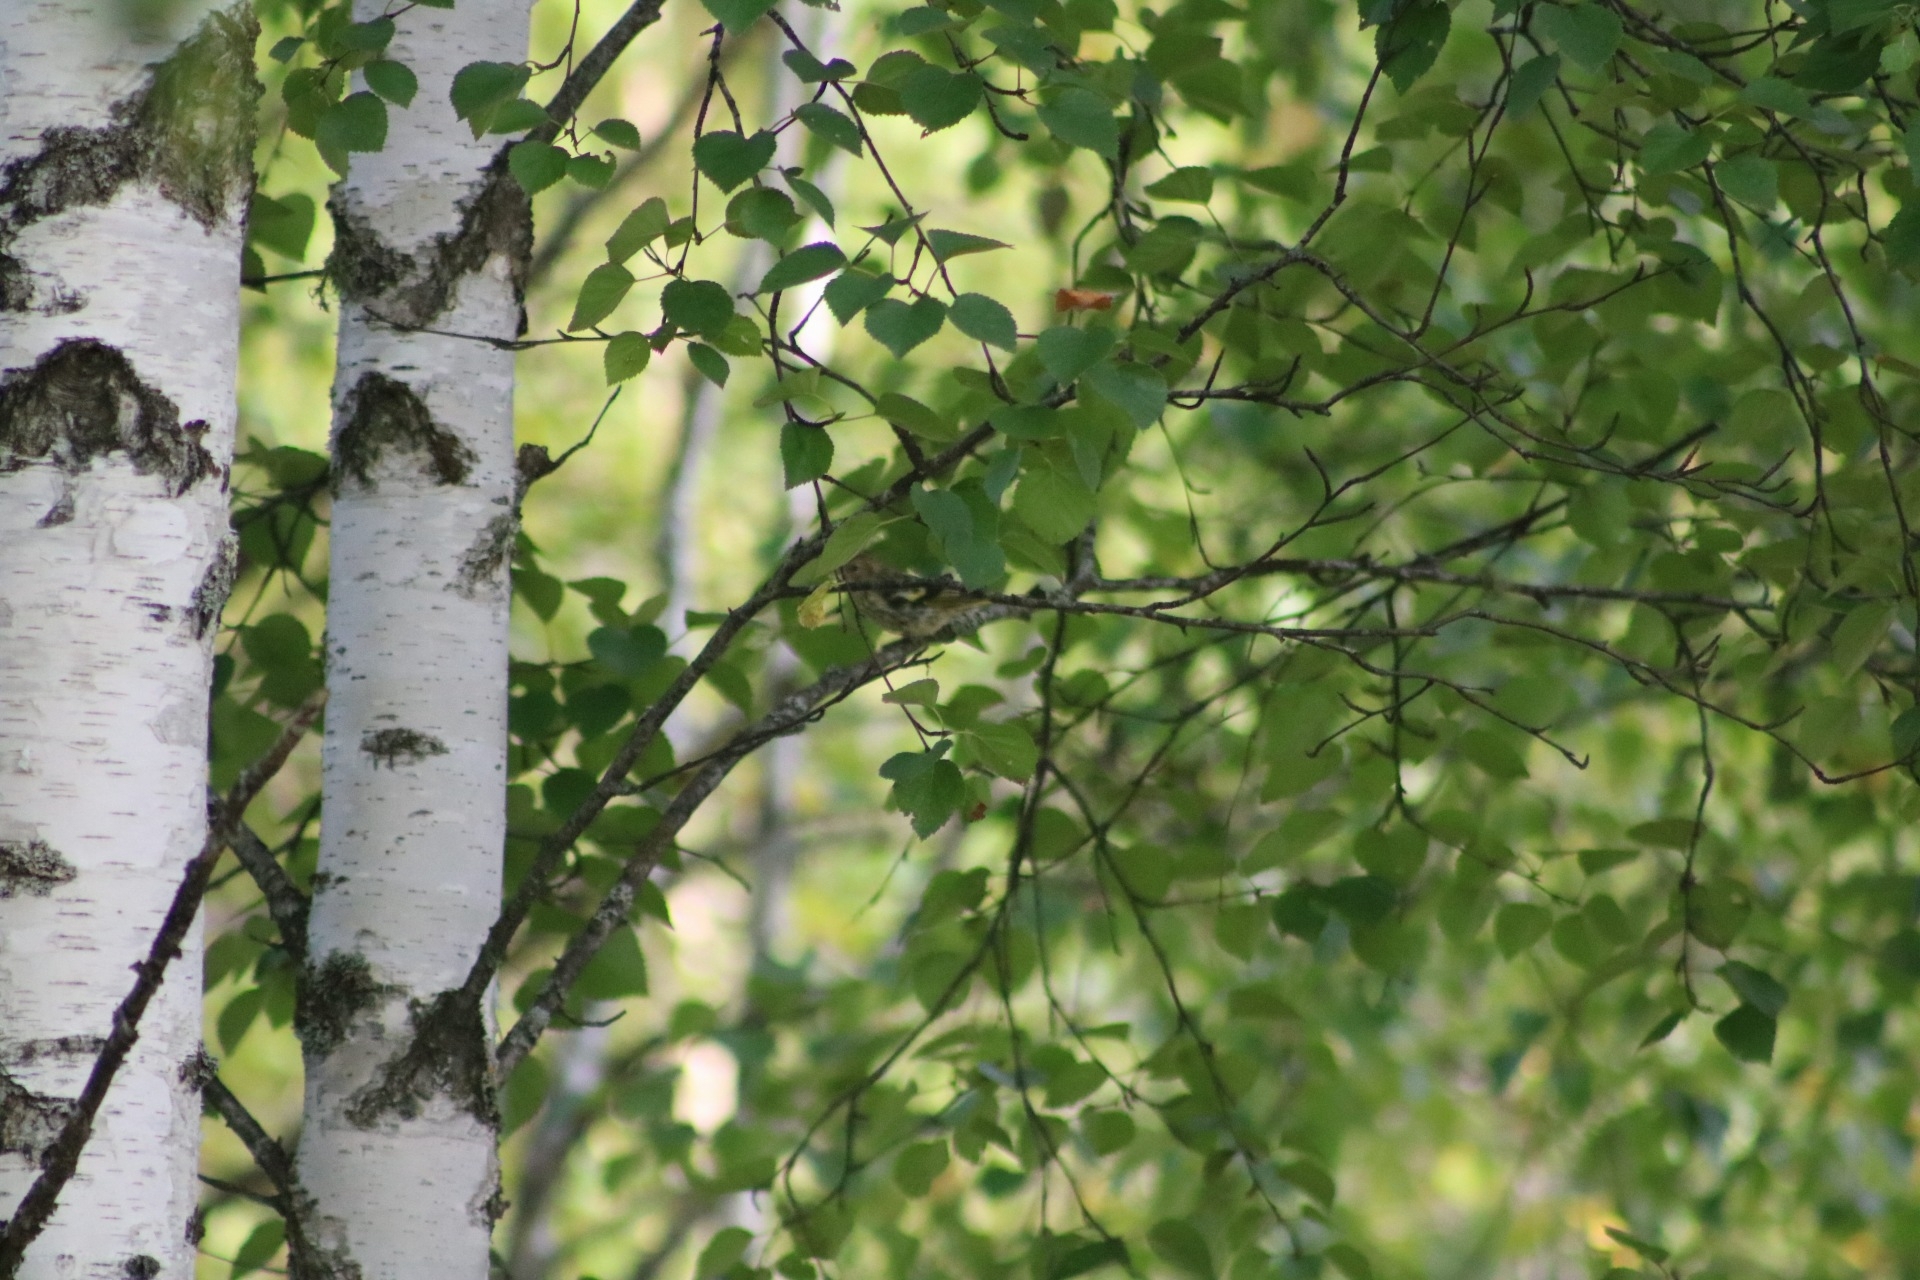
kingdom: Animalia
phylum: Chordata
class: Aves
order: Passeriformes
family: Fringillidae
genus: Spinus
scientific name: Spinus spinus
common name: Eurasian siskin
